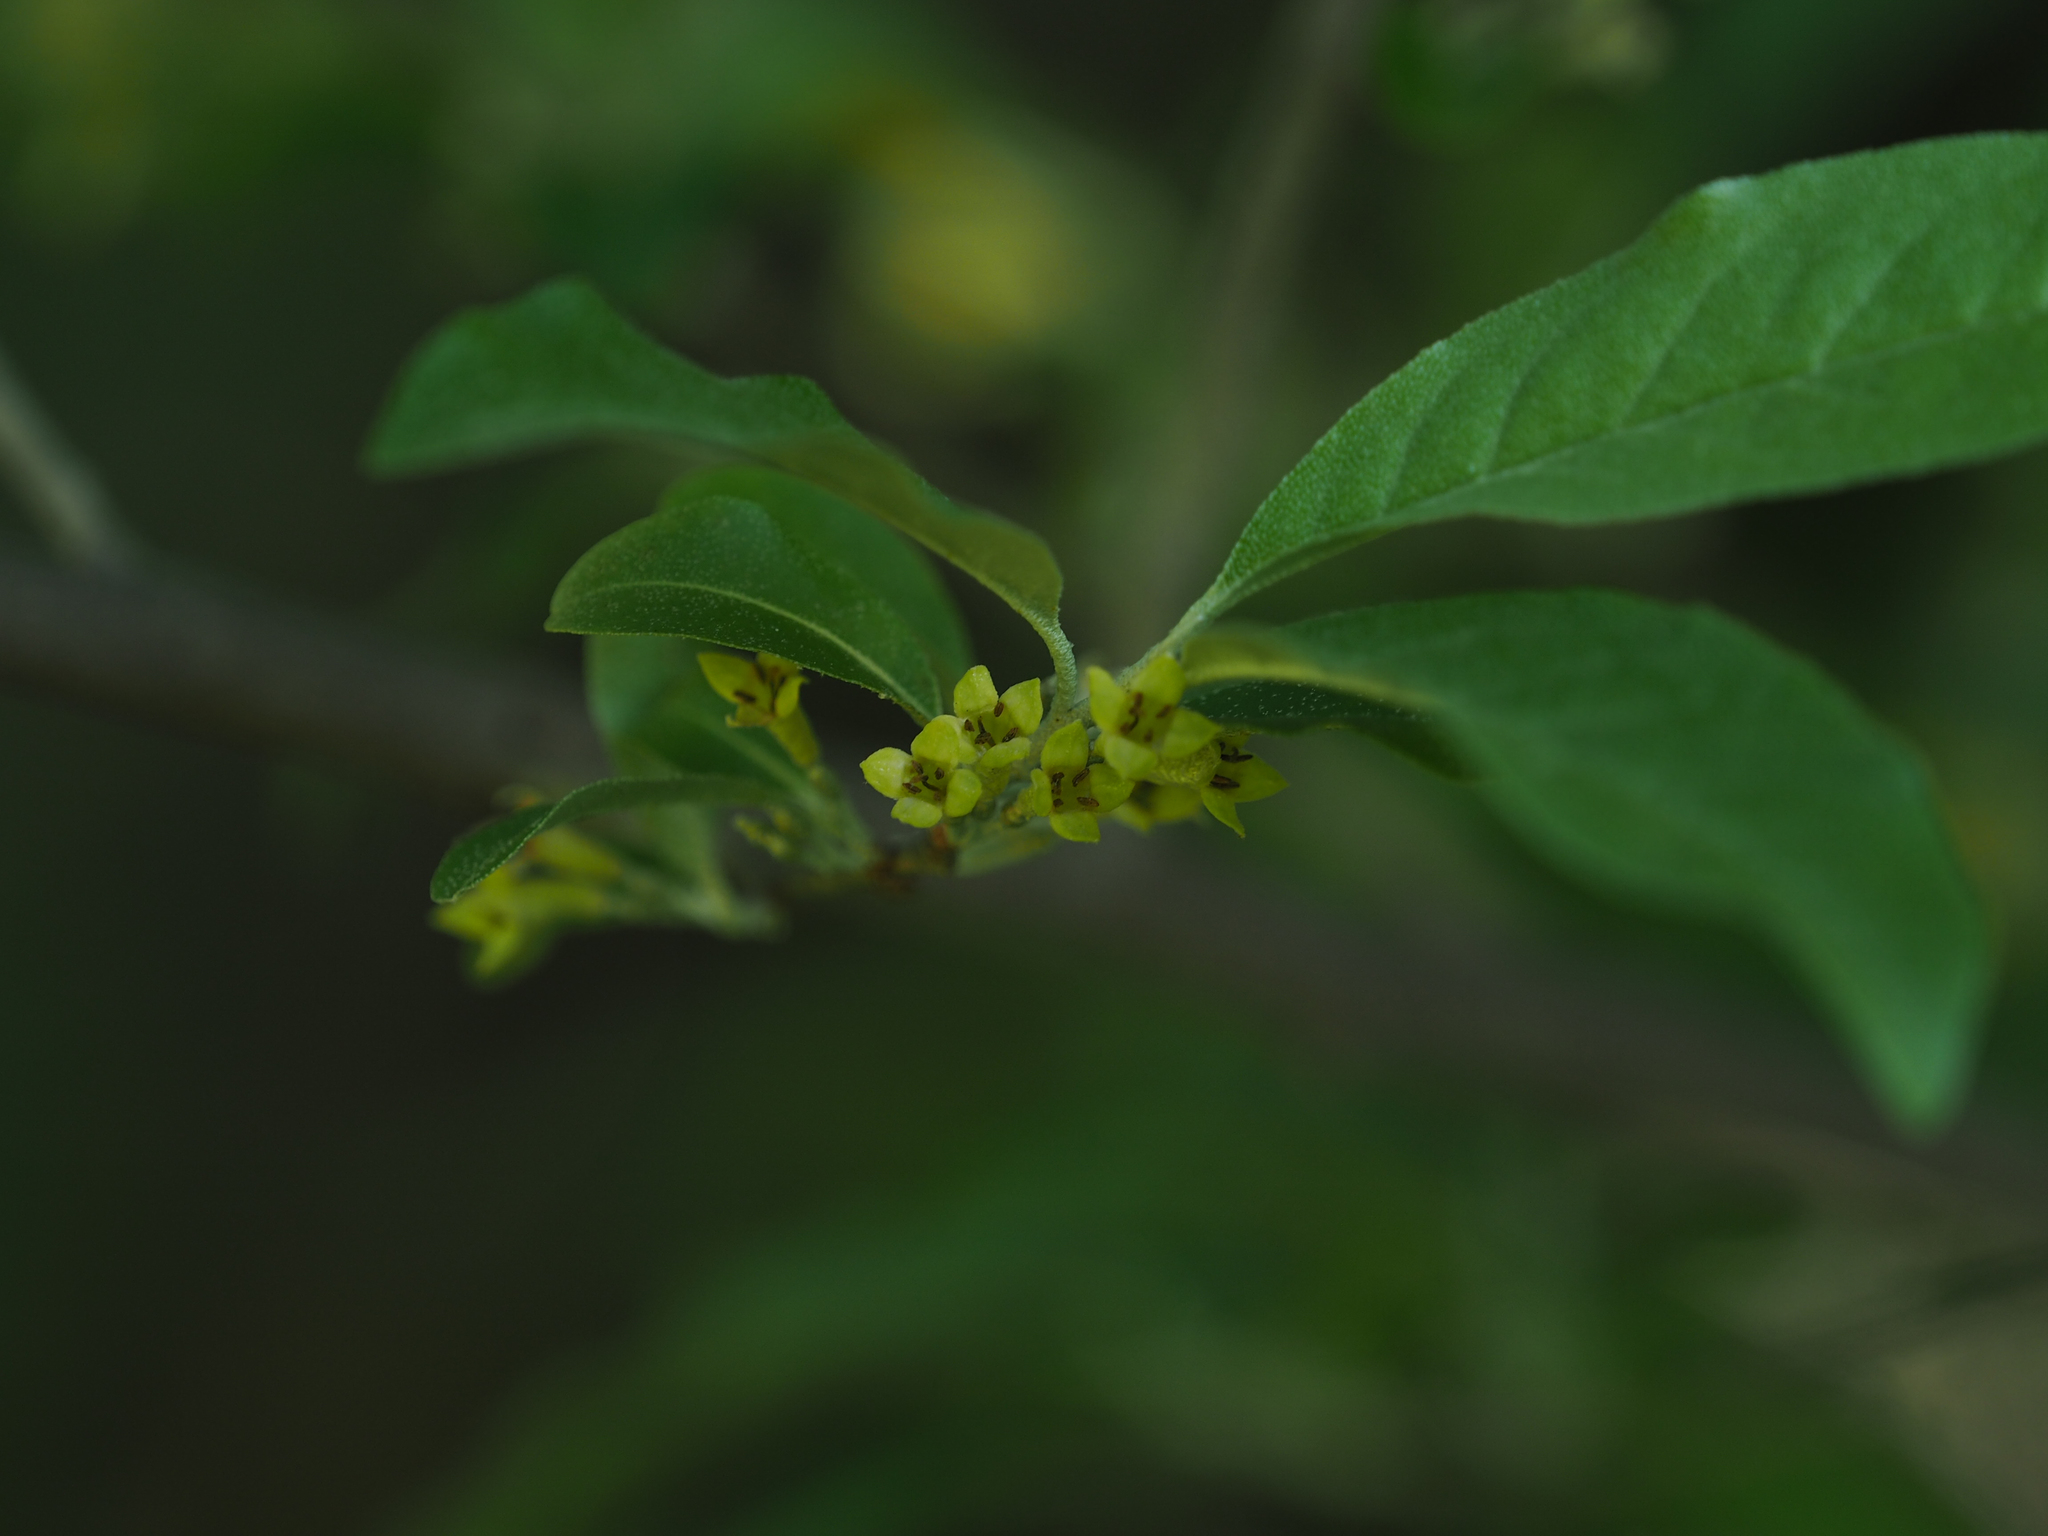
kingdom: Plantae
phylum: Tracheophyta
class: Magnoliopsida
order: Rosales
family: Elaeagnaceae
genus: Elaeagnus
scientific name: Elaeagnus umbellata
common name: Autumn olive
